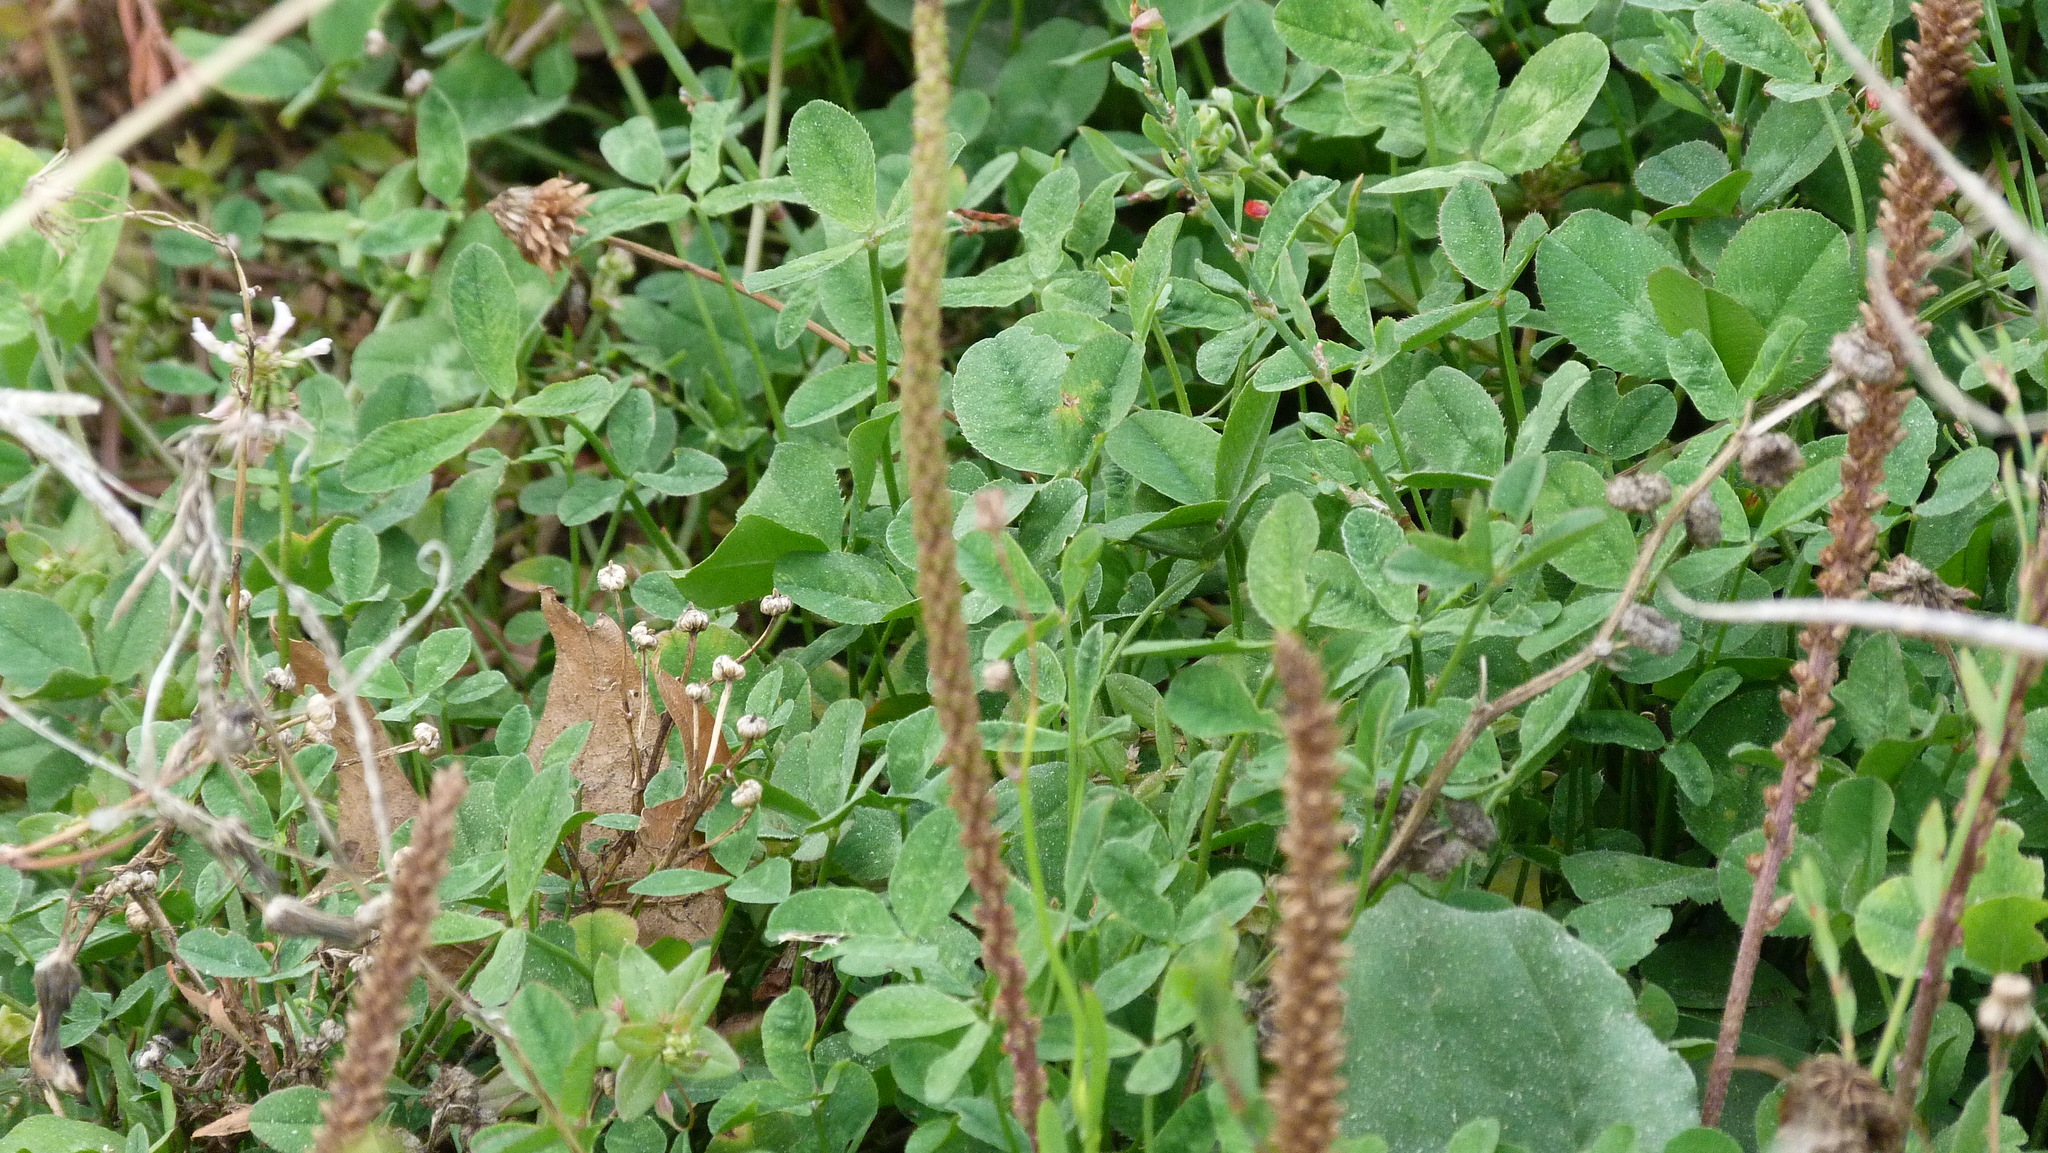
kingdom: Plantae
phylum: Tracheophyta
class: Magnoliopsida
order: Fabales
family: Fabaceae
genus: Trifolium
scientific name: Trifolium repens
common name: White clover
